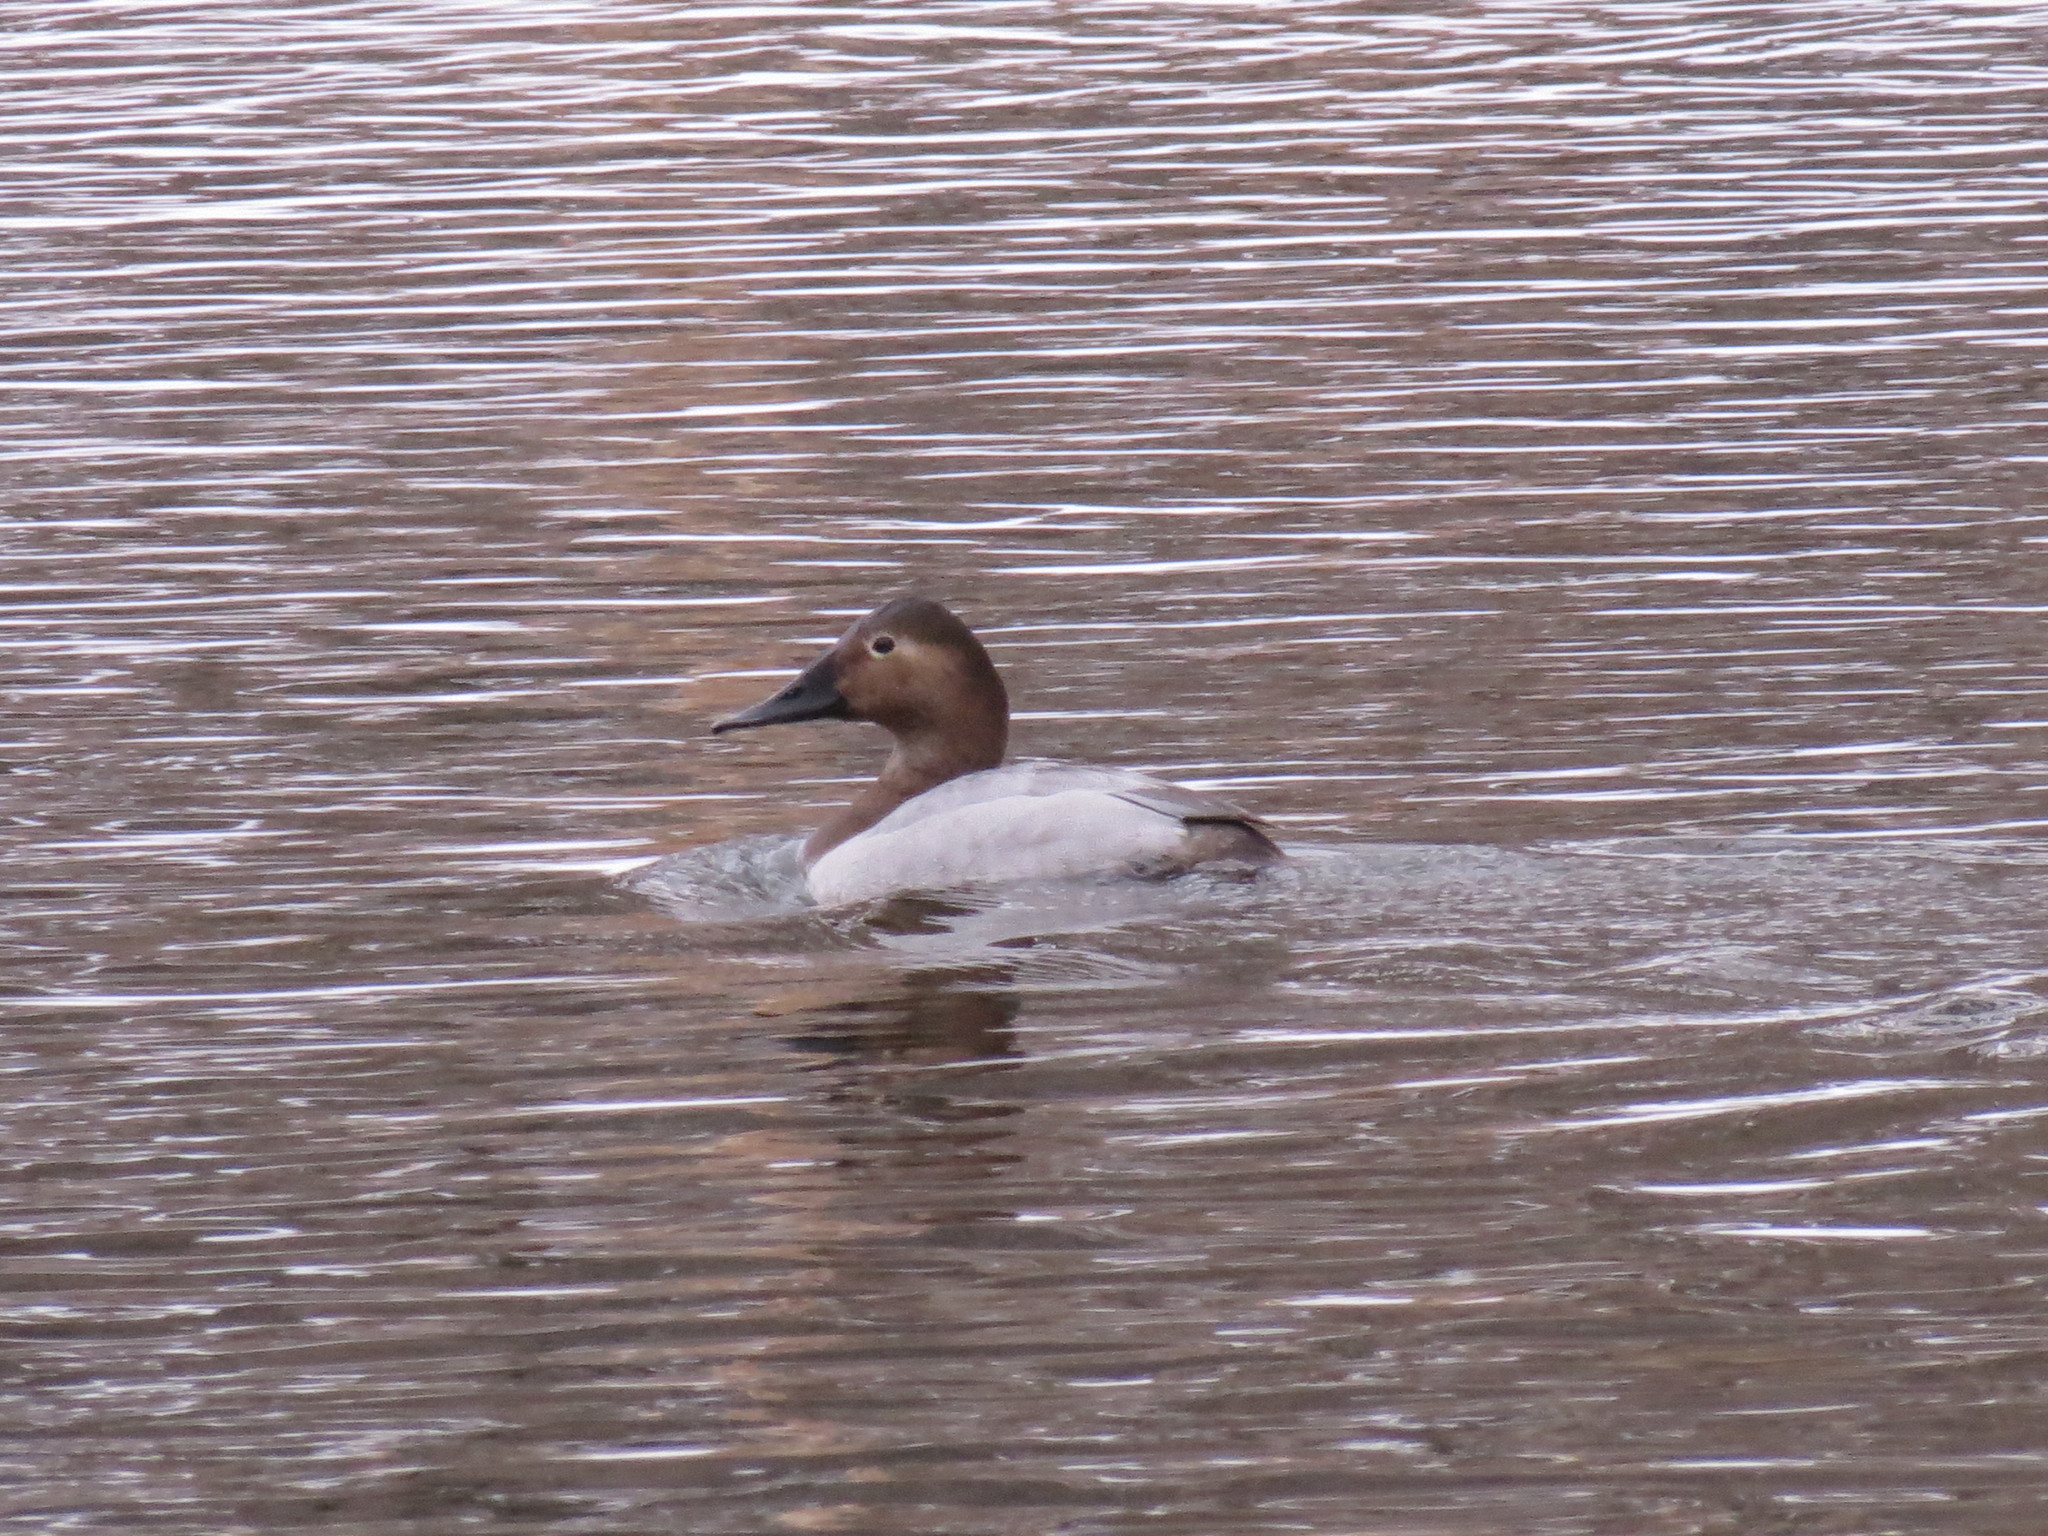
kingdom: Animalia
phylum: Chordata
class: Aves
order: Anseriformes
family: Anatidae
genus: Aythya
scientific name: Aythya valisineria
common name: Canvasback
